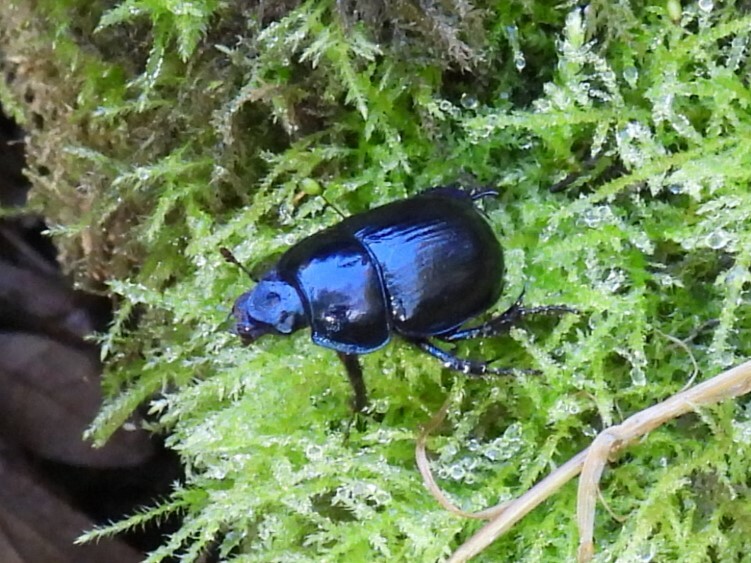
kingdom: Animalia
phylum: Arthropoda
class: Insecta
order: Coleoptera
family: Geotrupidae
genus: Anoplotrupes
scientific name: Anoplotrupes stercorosus
